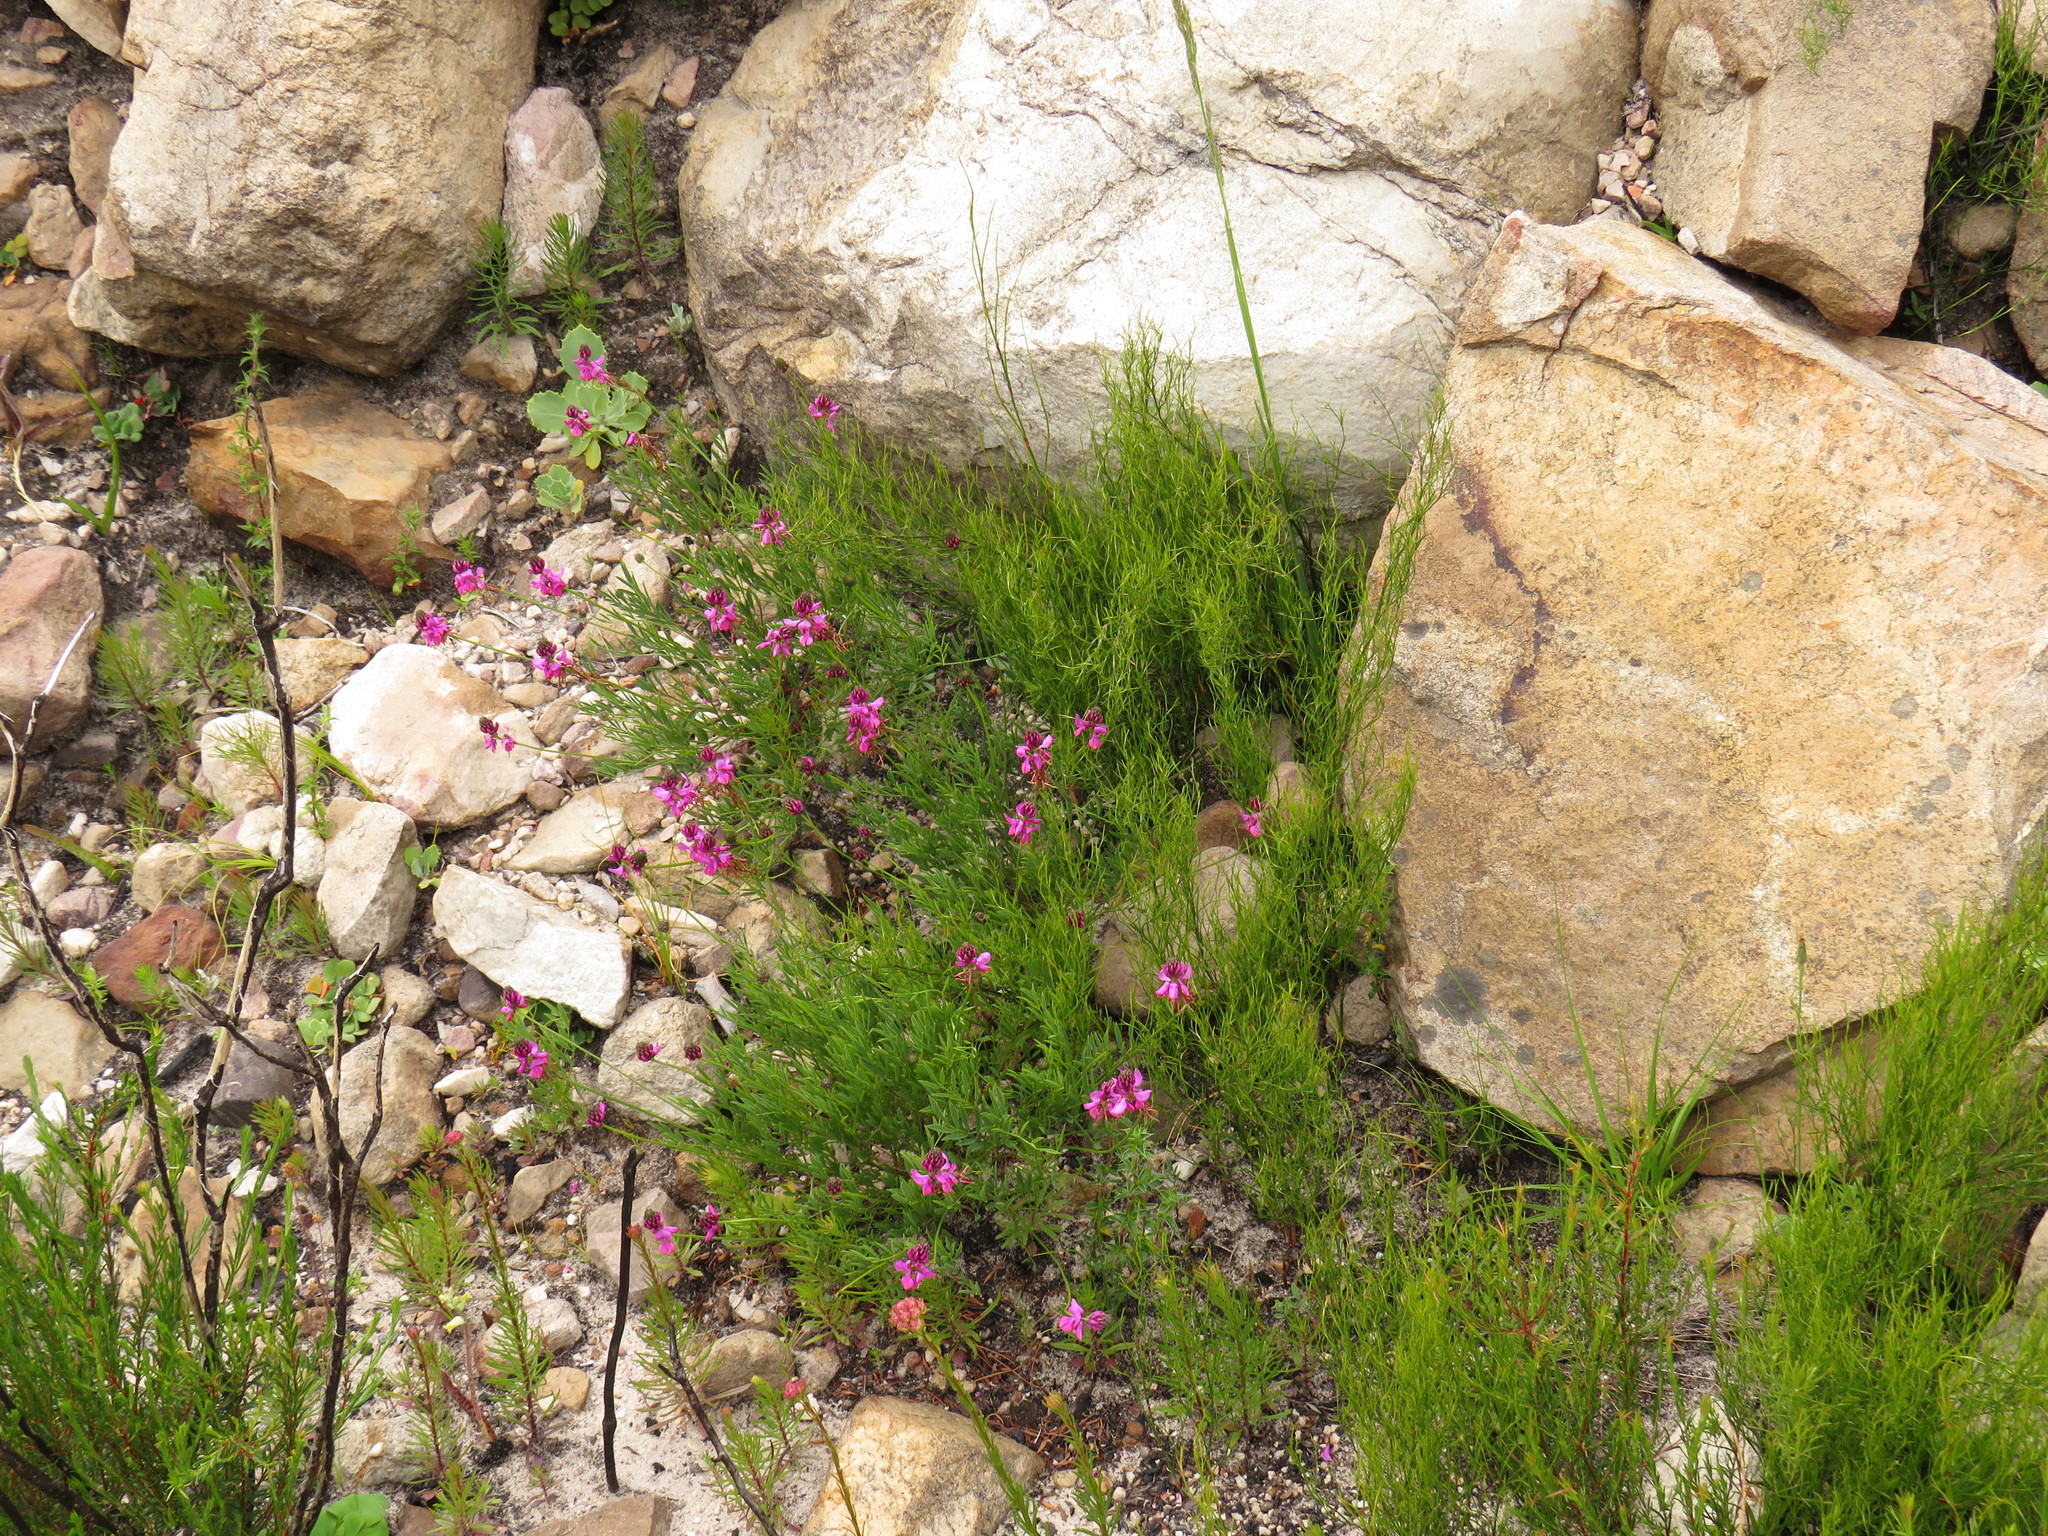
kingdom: Plantae
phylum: Tracheophyta
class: Magnoliopsida
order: Fabales
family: Fabaceae
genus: Indigofera
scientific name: Indigofera capillaris
